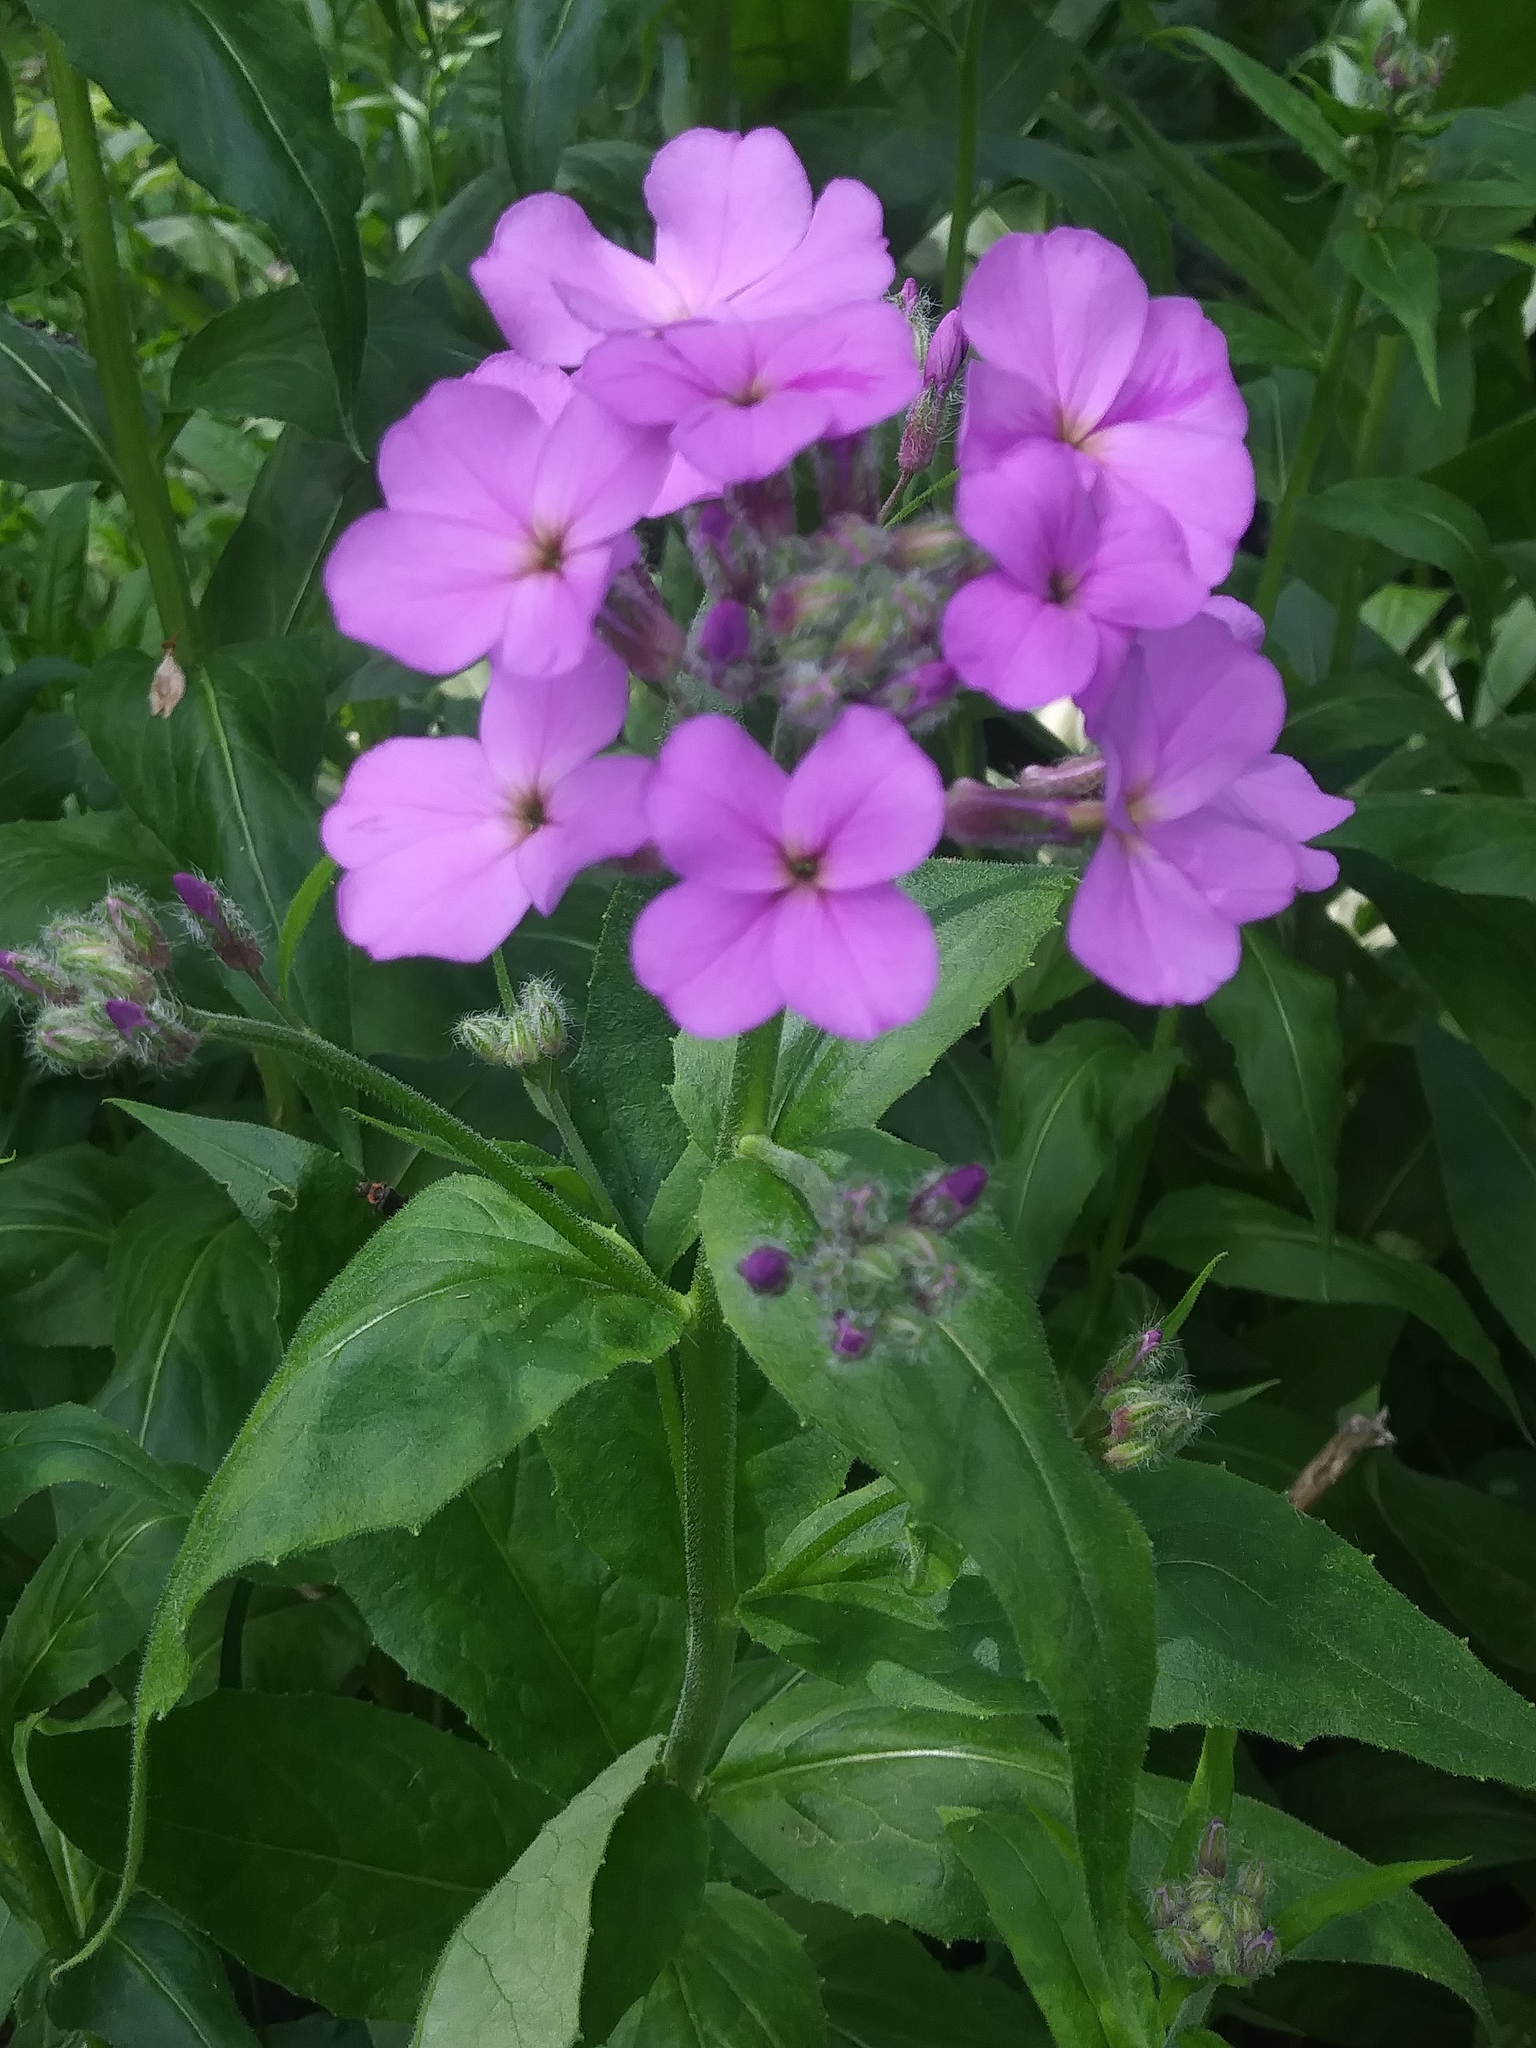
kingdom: Plantae
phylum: Tracheophyta
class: Magnoliopsida
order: Brassicales
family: Brassicaceae
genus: Hesperis
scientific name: Hesperis matronalis
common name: Dame's-violet
